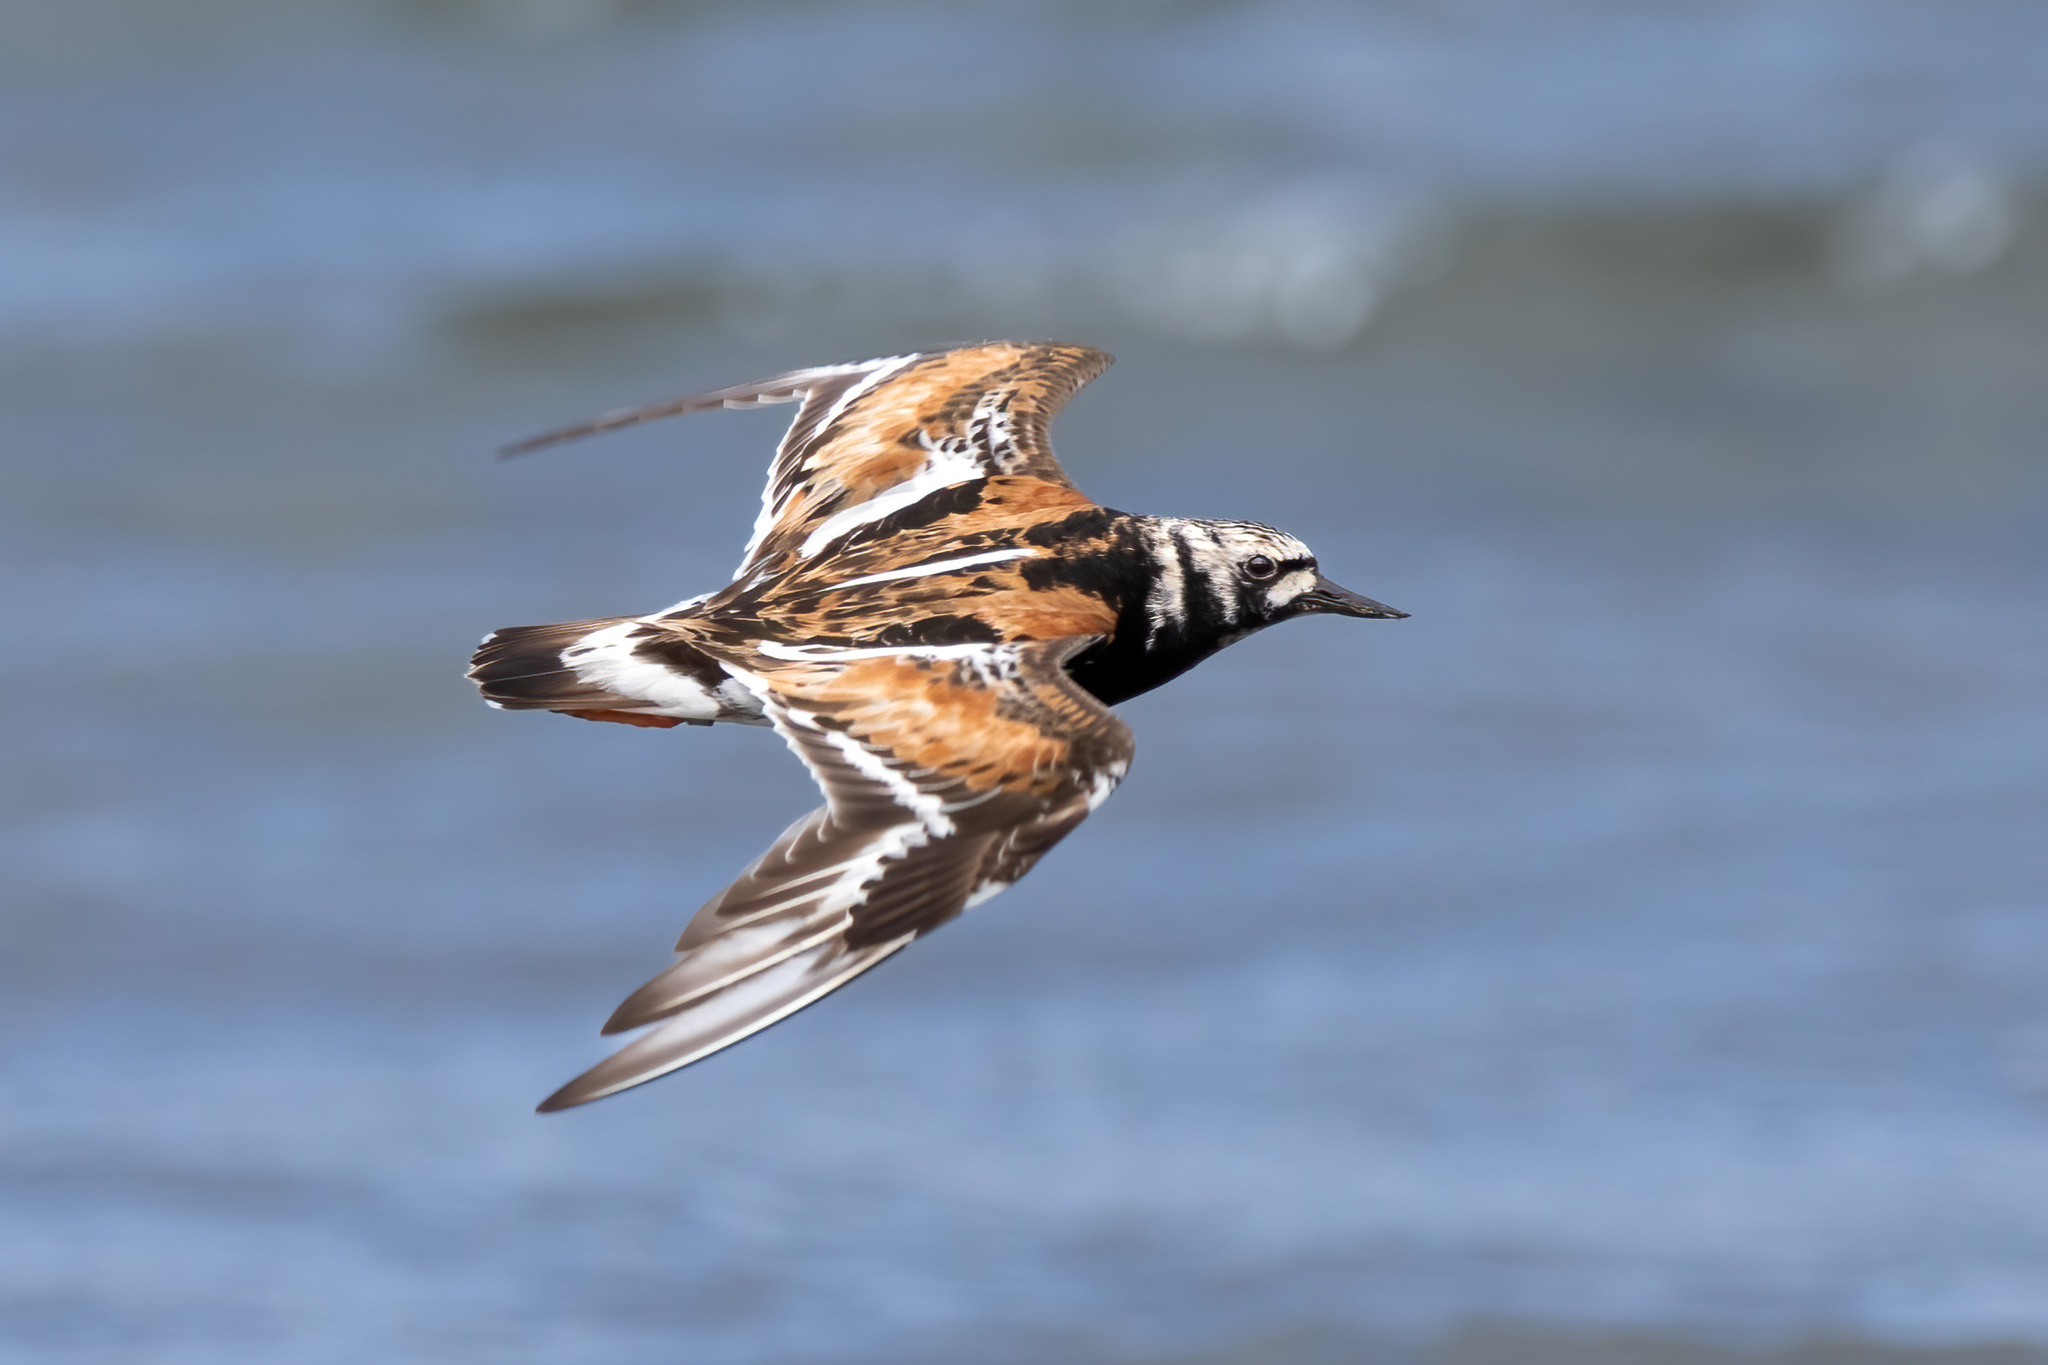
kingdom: Animalia
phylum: Chordata
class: Aves
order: Charadriiformes
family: Scolopacidae
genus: Arenaria
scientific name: Arenaria interpres
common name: Ruddy turnstone
